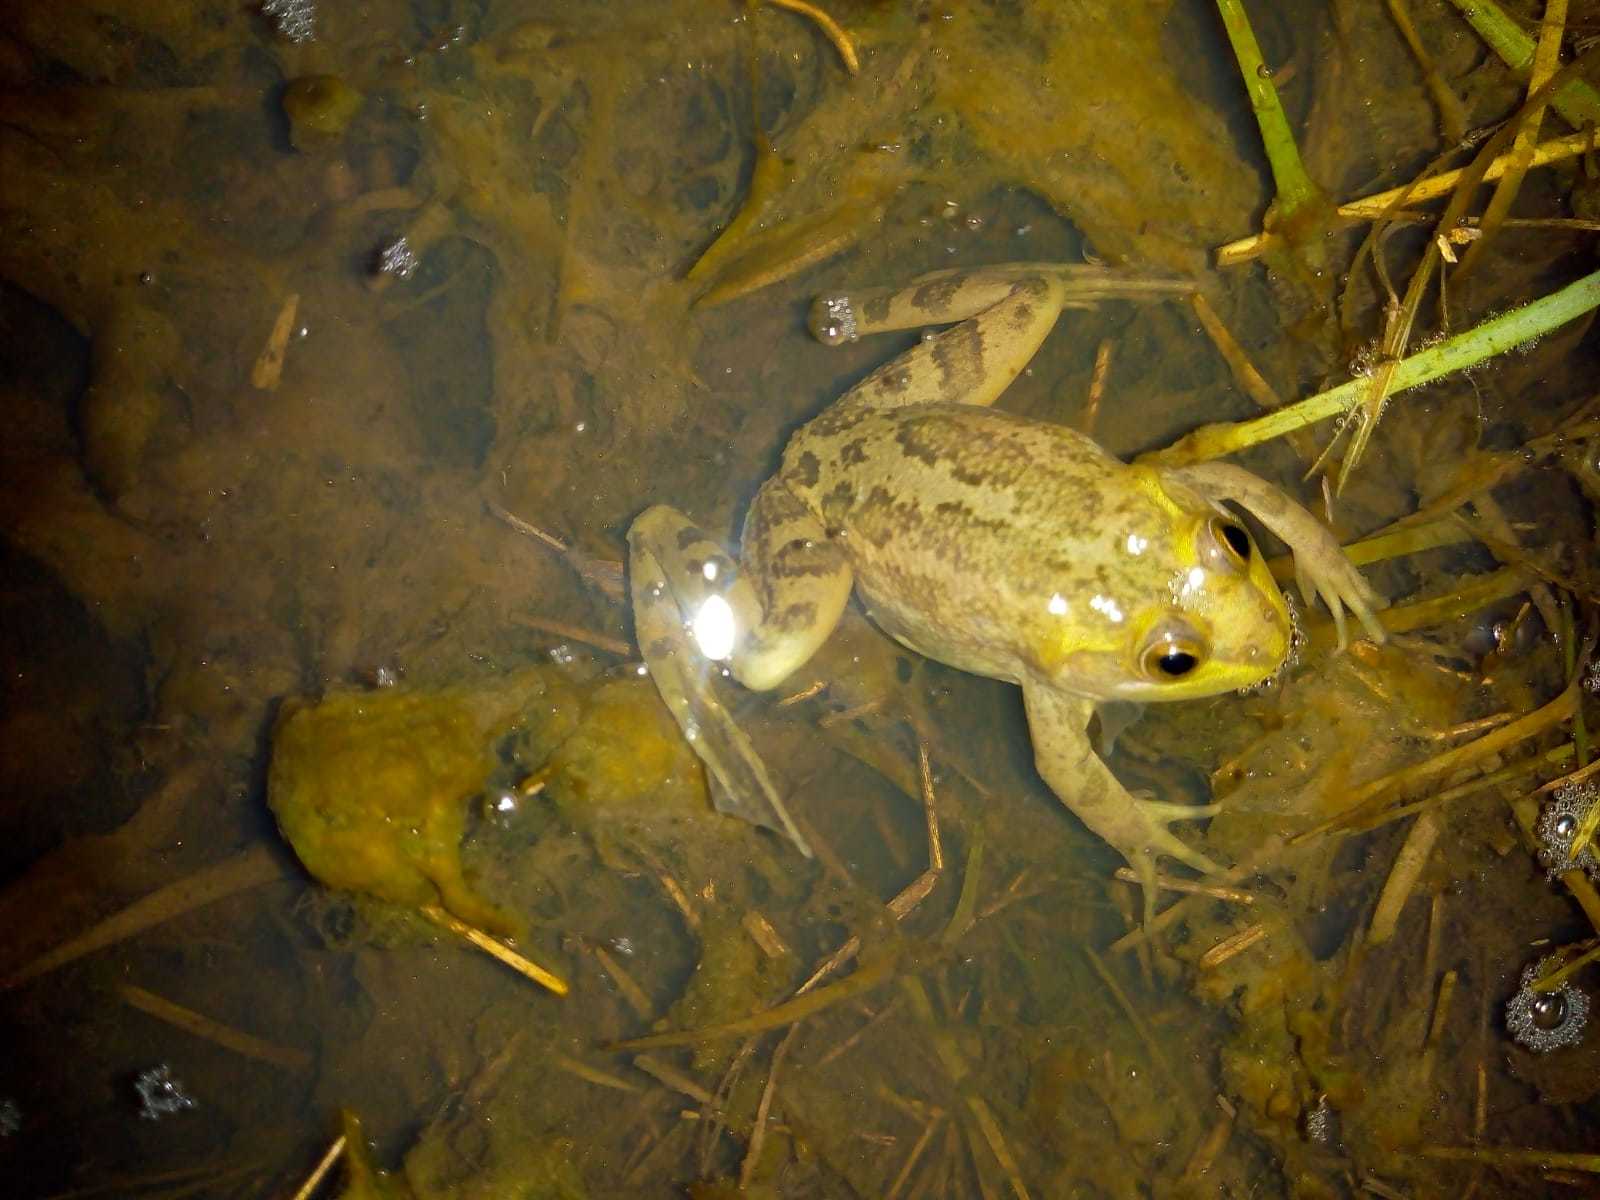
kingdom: Animalia
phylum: Chordata
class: Amphibia
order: Anura
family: Hylidae
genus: Pseudis
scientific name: Pseudis minuta
